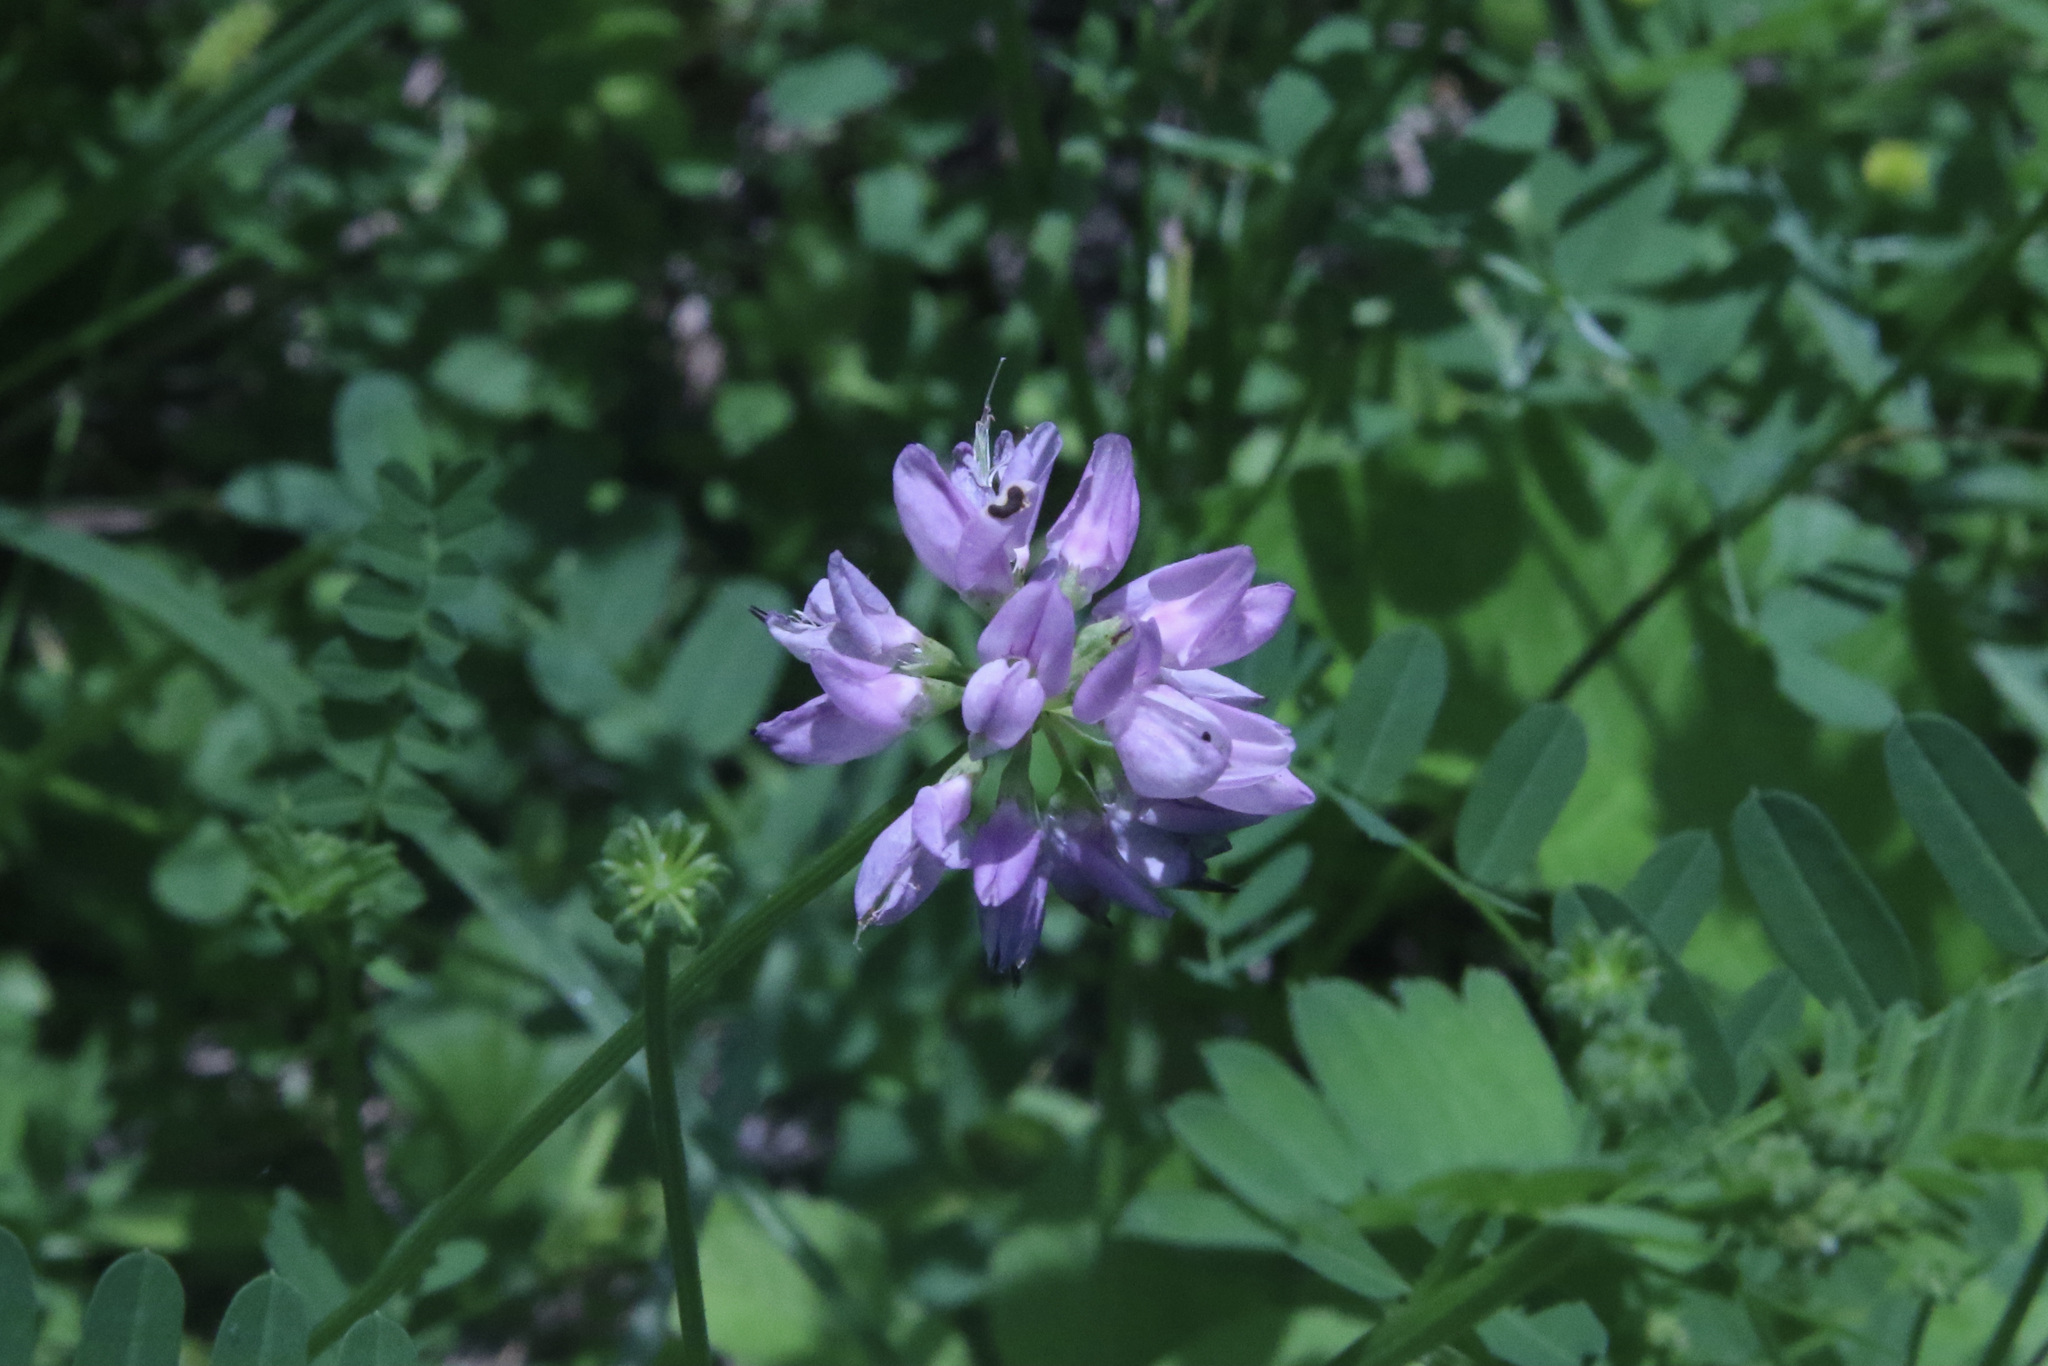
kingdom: Plantae
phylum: Tracheophyta
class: Magnoliopsida
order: Fabales
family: Fabaceae
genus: Coronilla
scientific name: Coronilla varia
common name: Crownvetch
